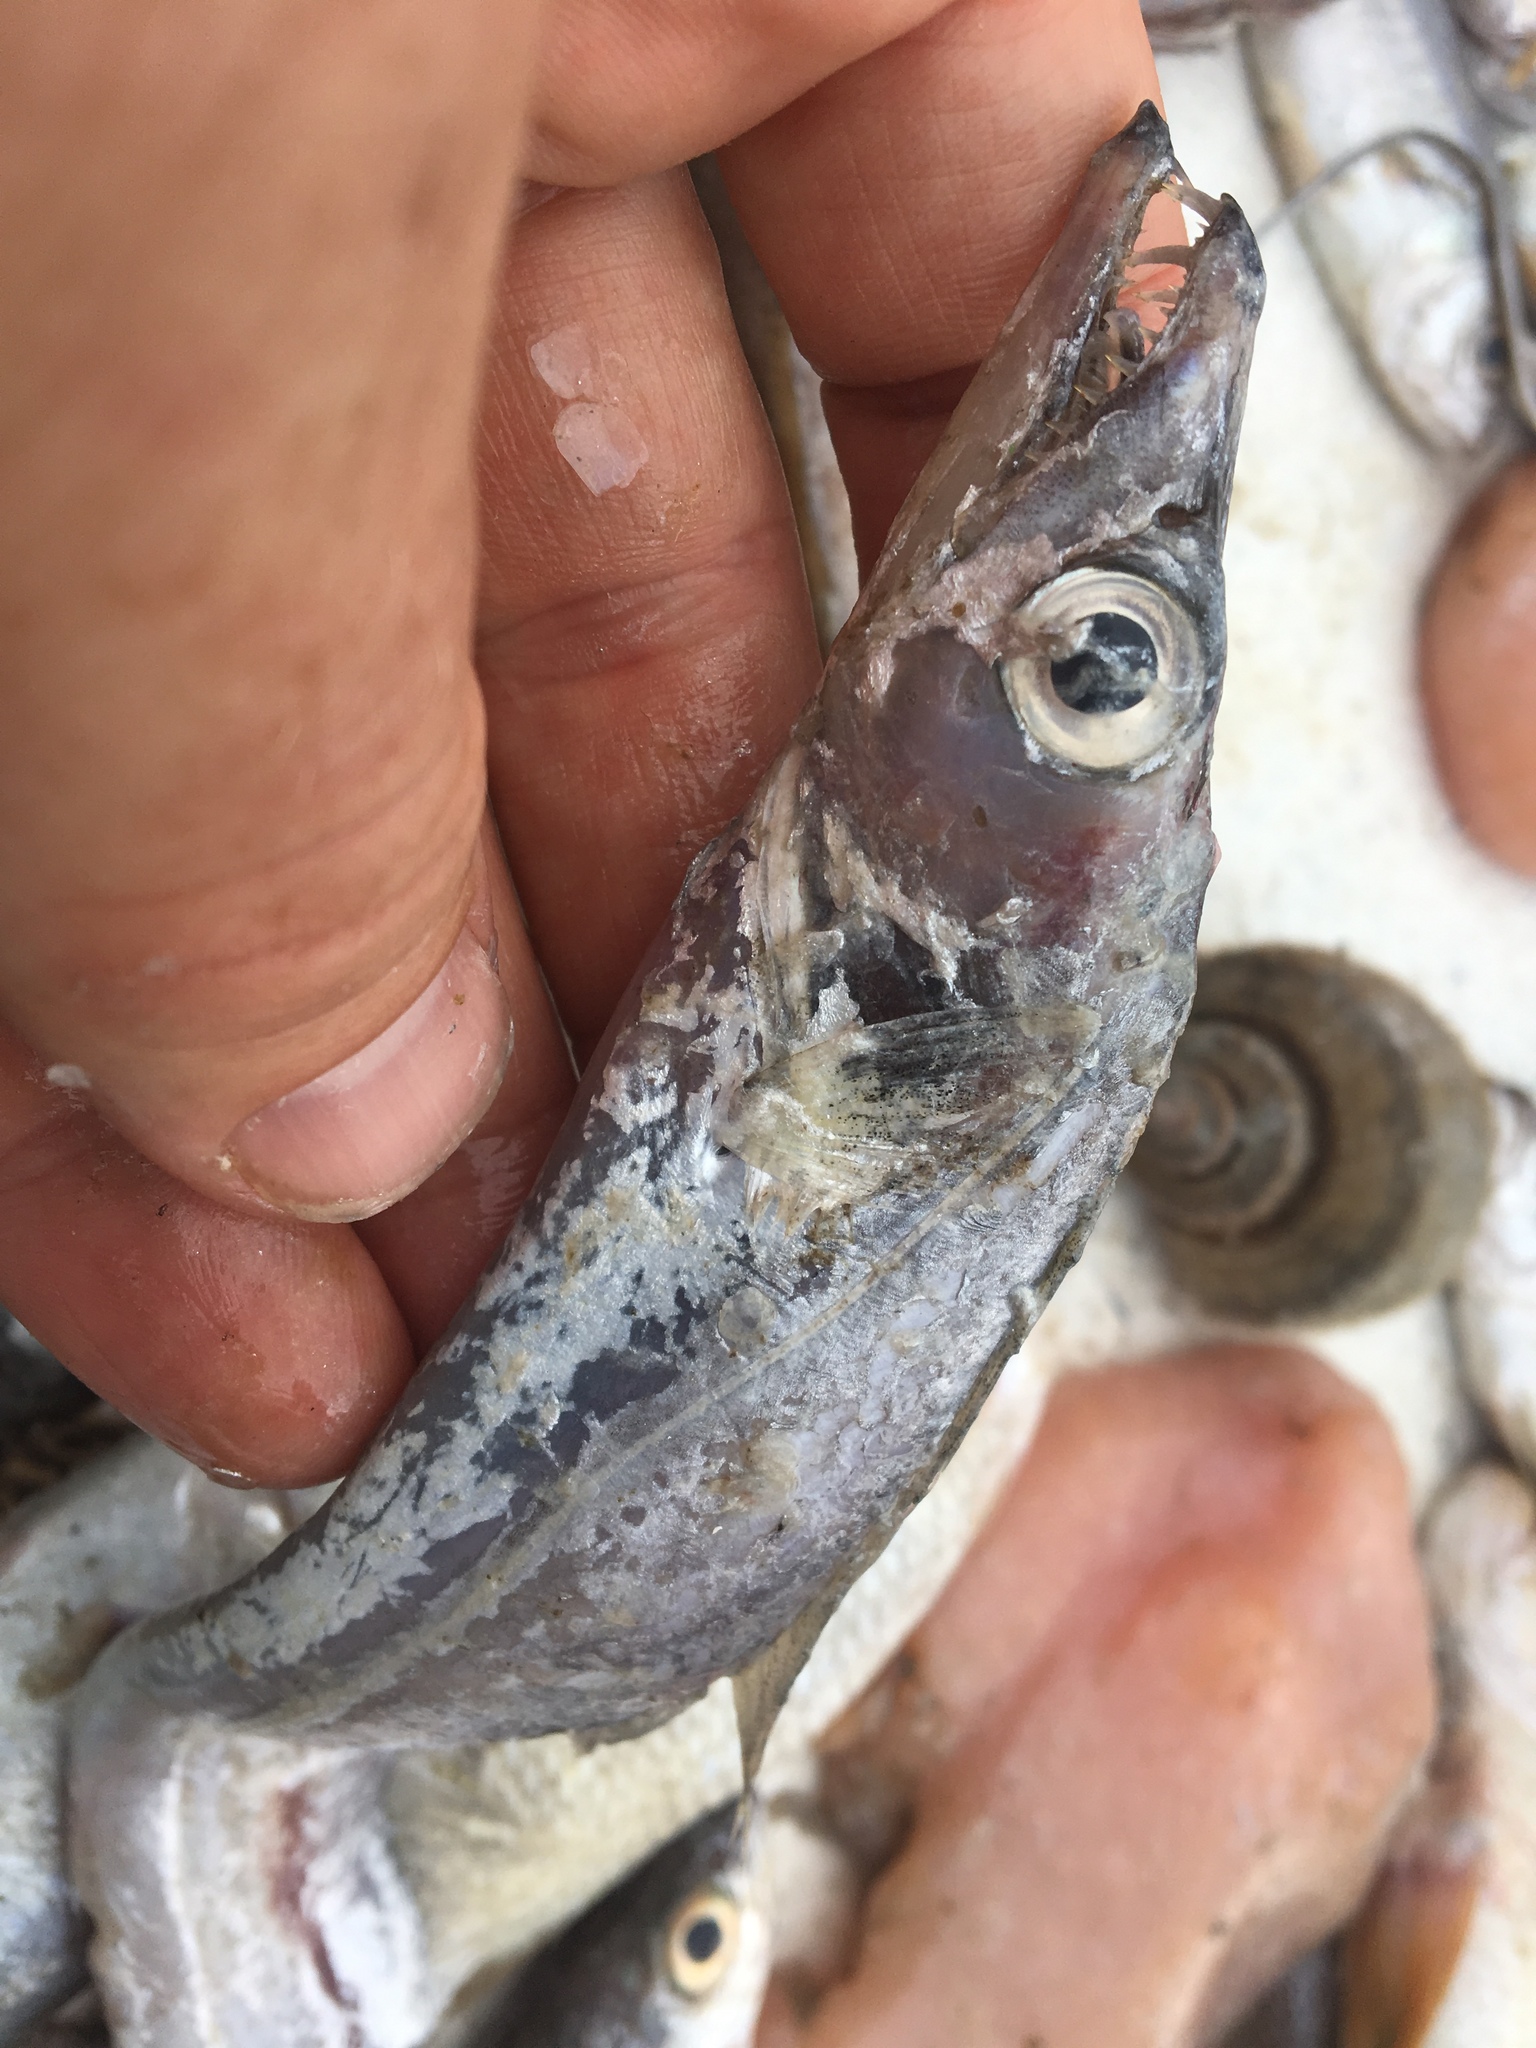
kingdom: Animalia
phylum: Chordata
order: Perciformes
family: Trichiuridae
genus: Trichiurus
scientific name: Trichiurus lepturus
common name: Largehead hairtail
